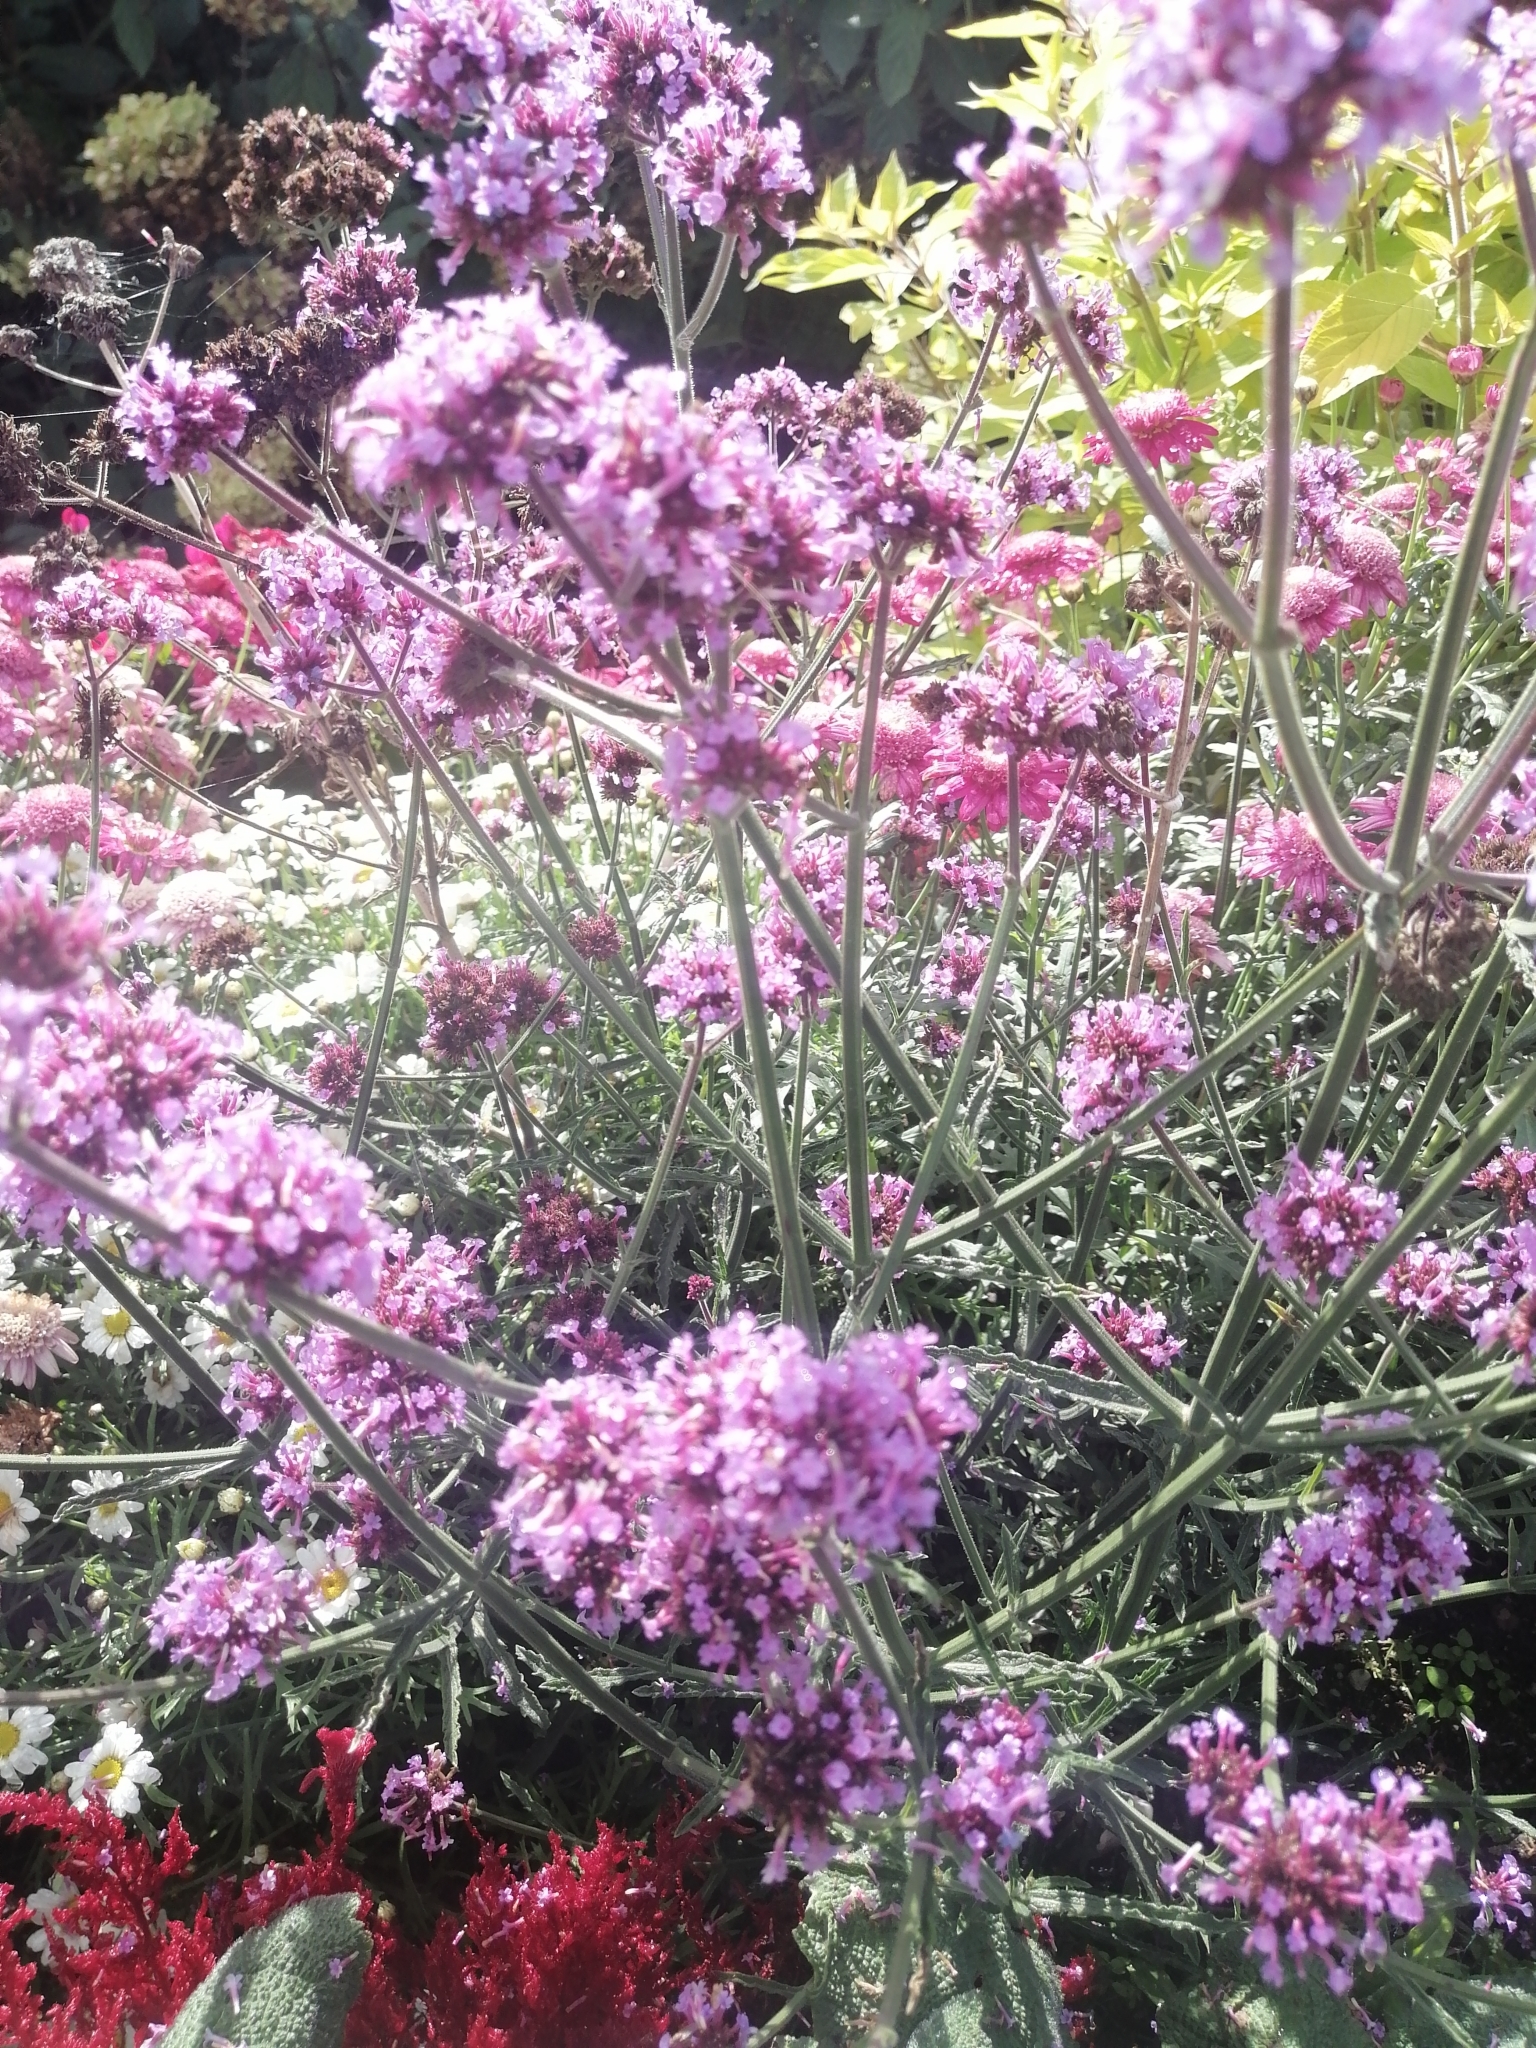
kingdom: Plantae
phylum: Tracheophyta
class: Magnoliopsida
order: Lamiales
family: Verbenaceae
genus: Verbena
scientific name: Verbena bonariensis
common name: Purpletop vervain
